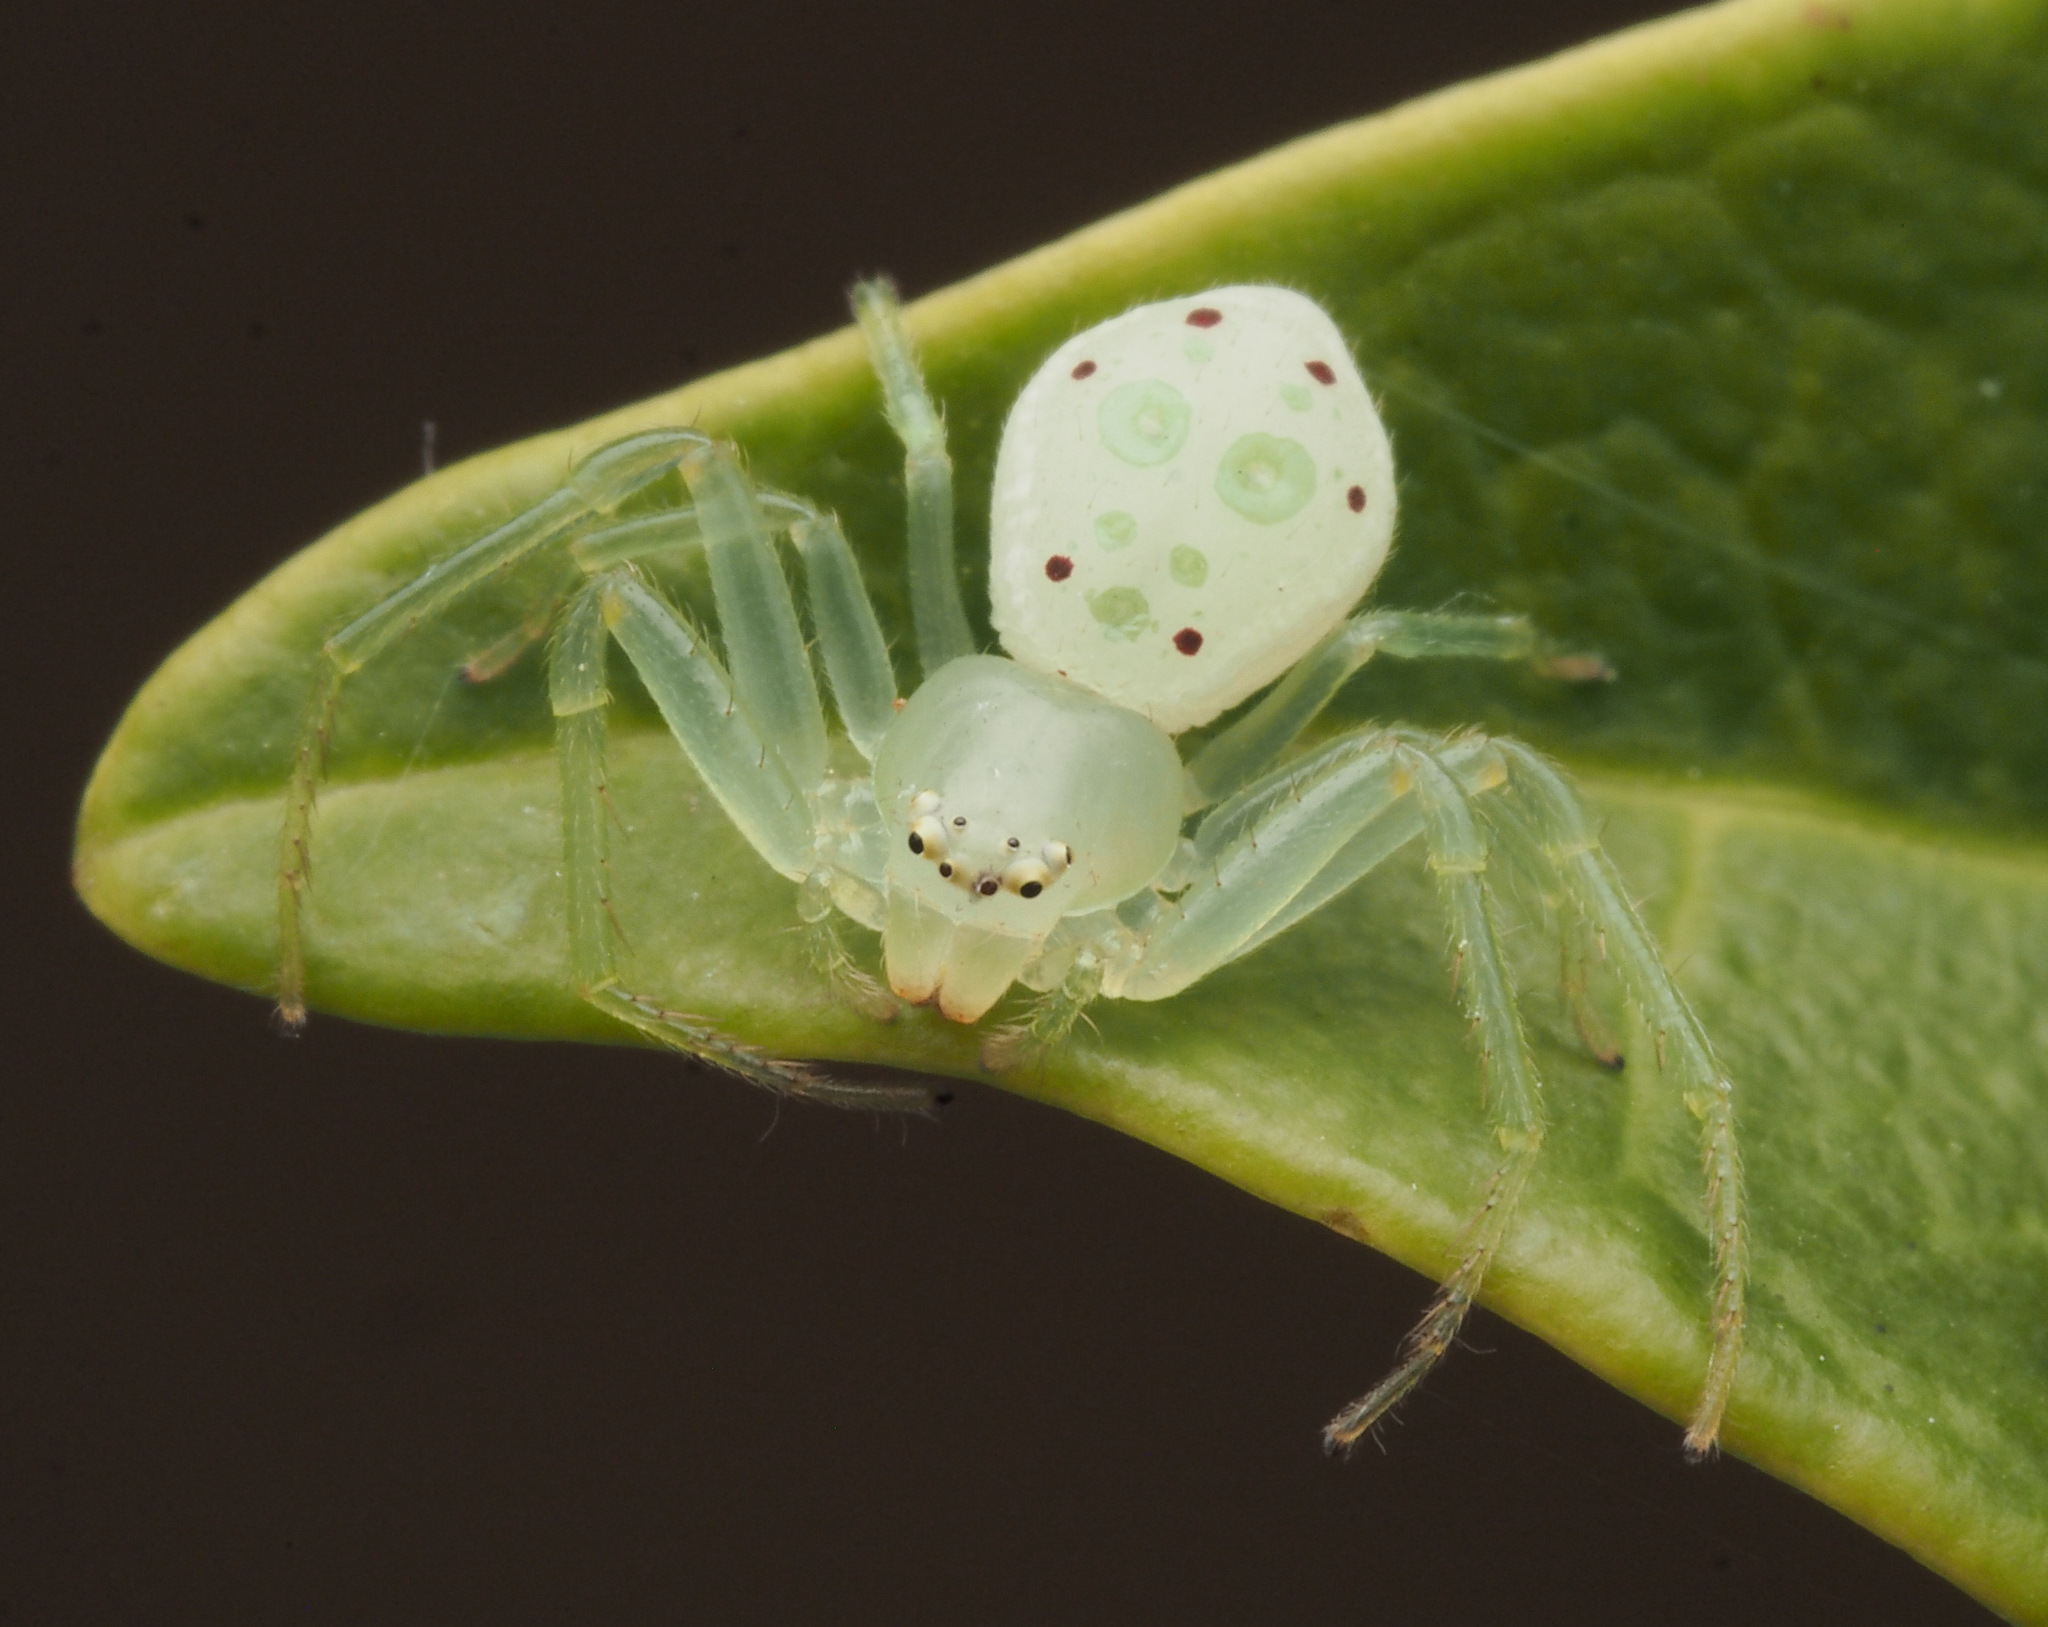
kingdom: Animalia
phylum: Arthropoda
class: Arachnida
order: Araneae
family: Thomisidae
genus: Australomisidia
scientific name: Australomisidia
